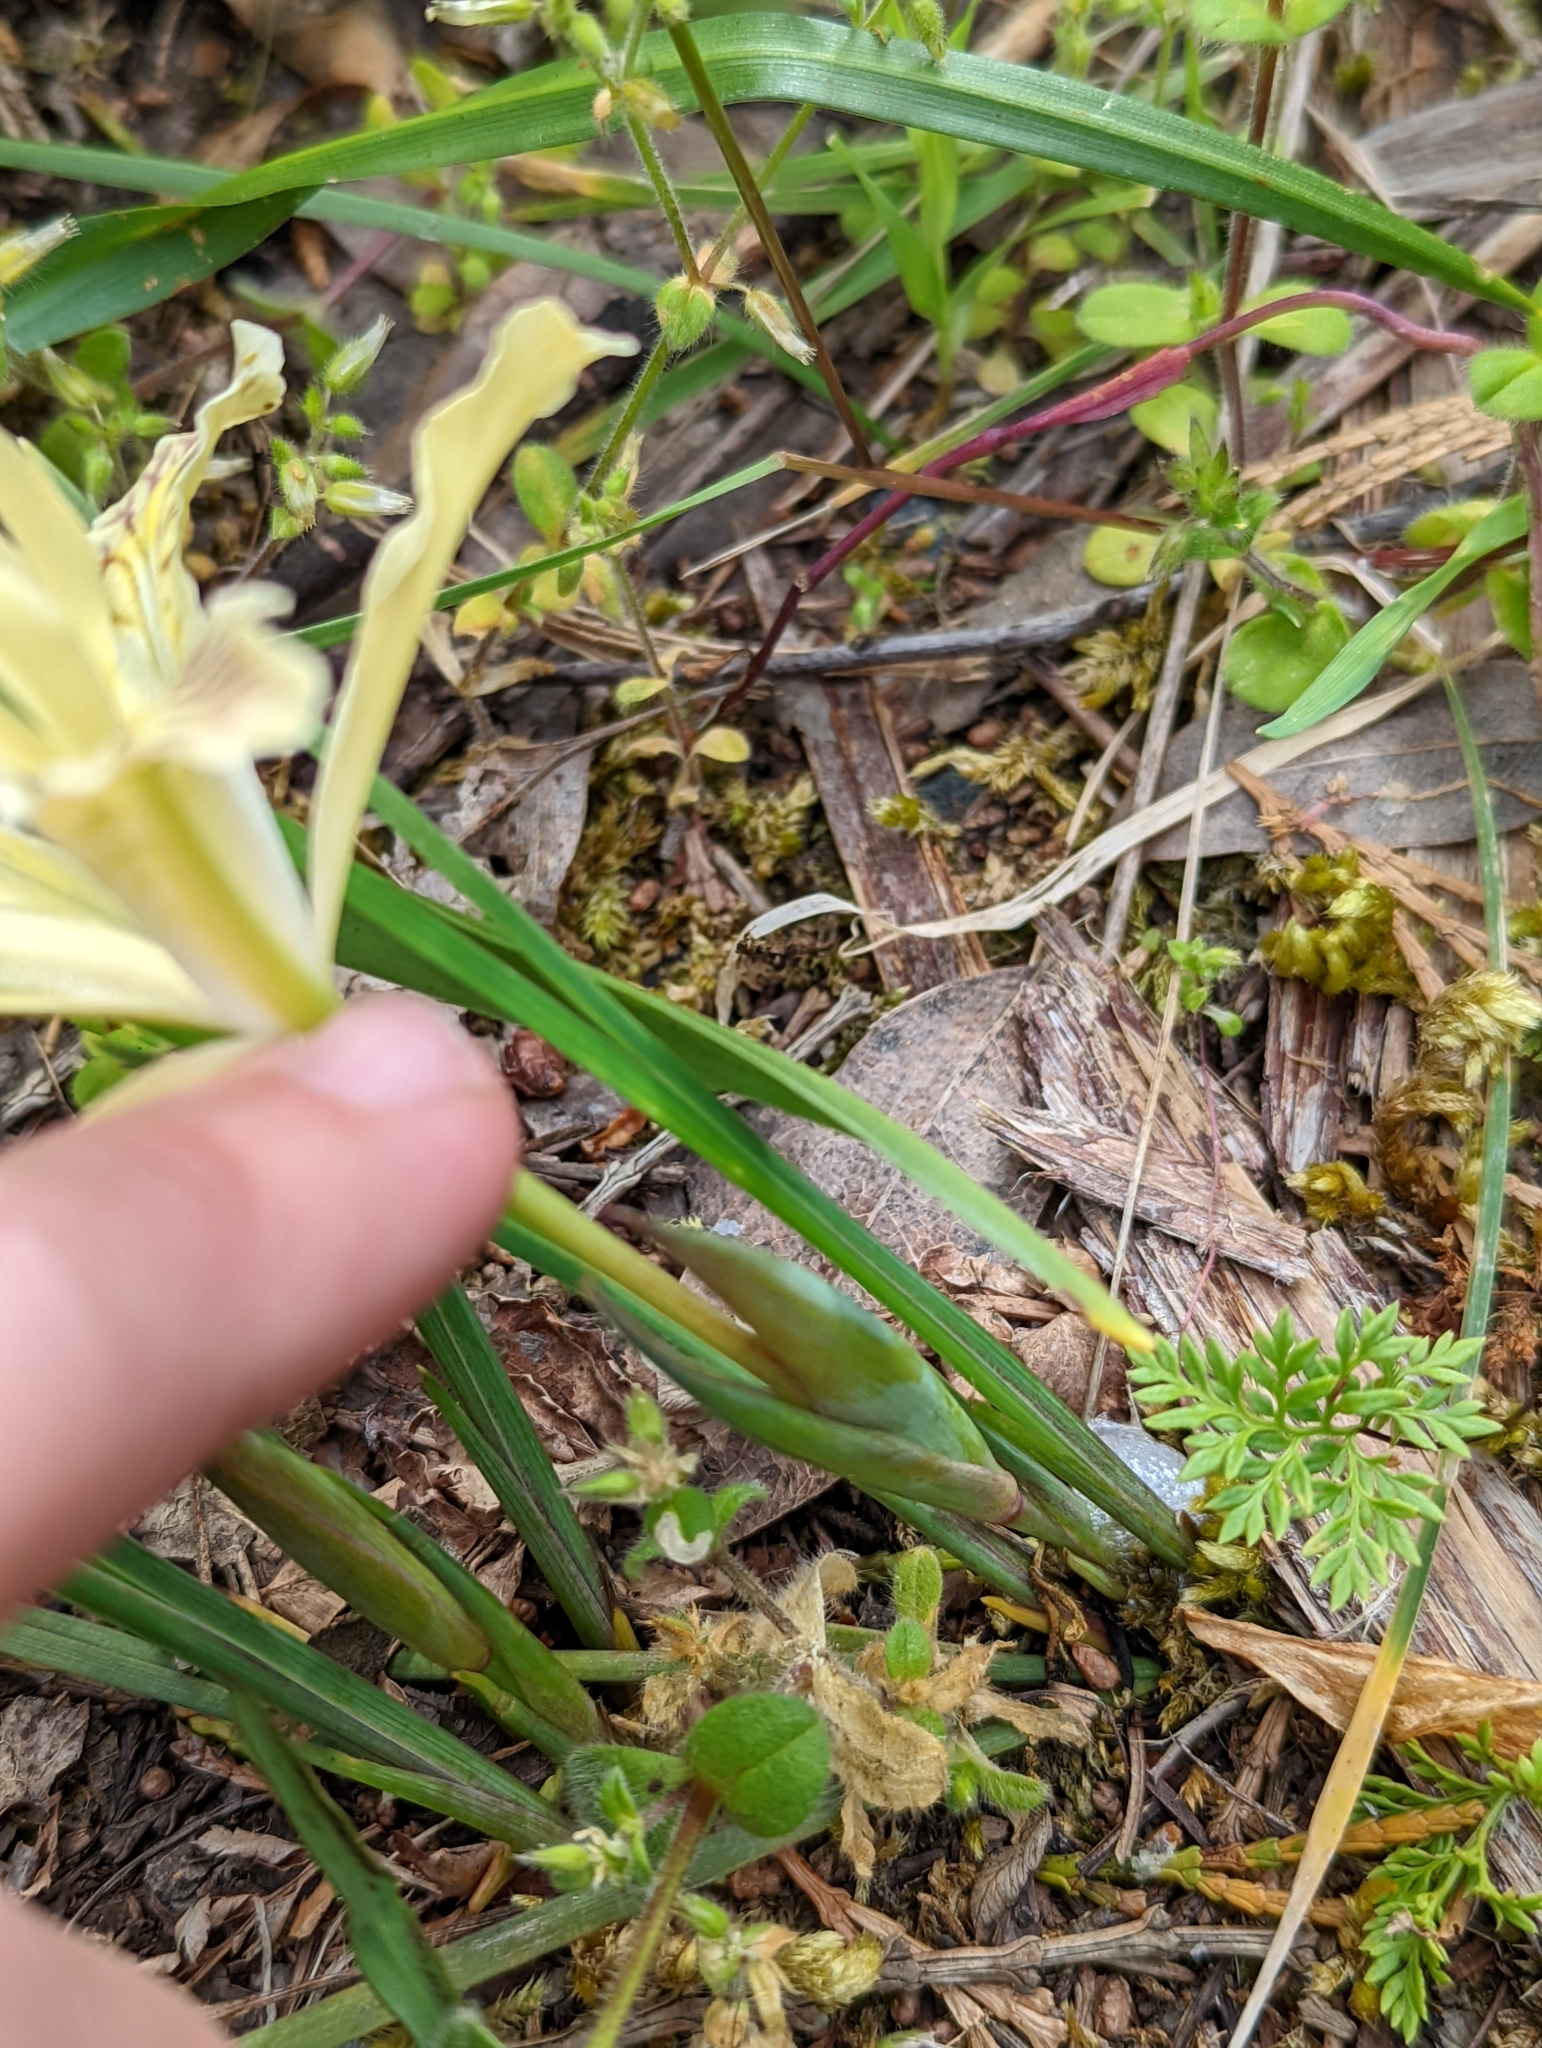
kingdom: Plantae
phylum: Tracheophyta
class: Liliopsida
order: Asparagales
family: Iridaceae
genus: Iris
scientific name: Iris chrysophylla
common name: Yellow-leaf iris
